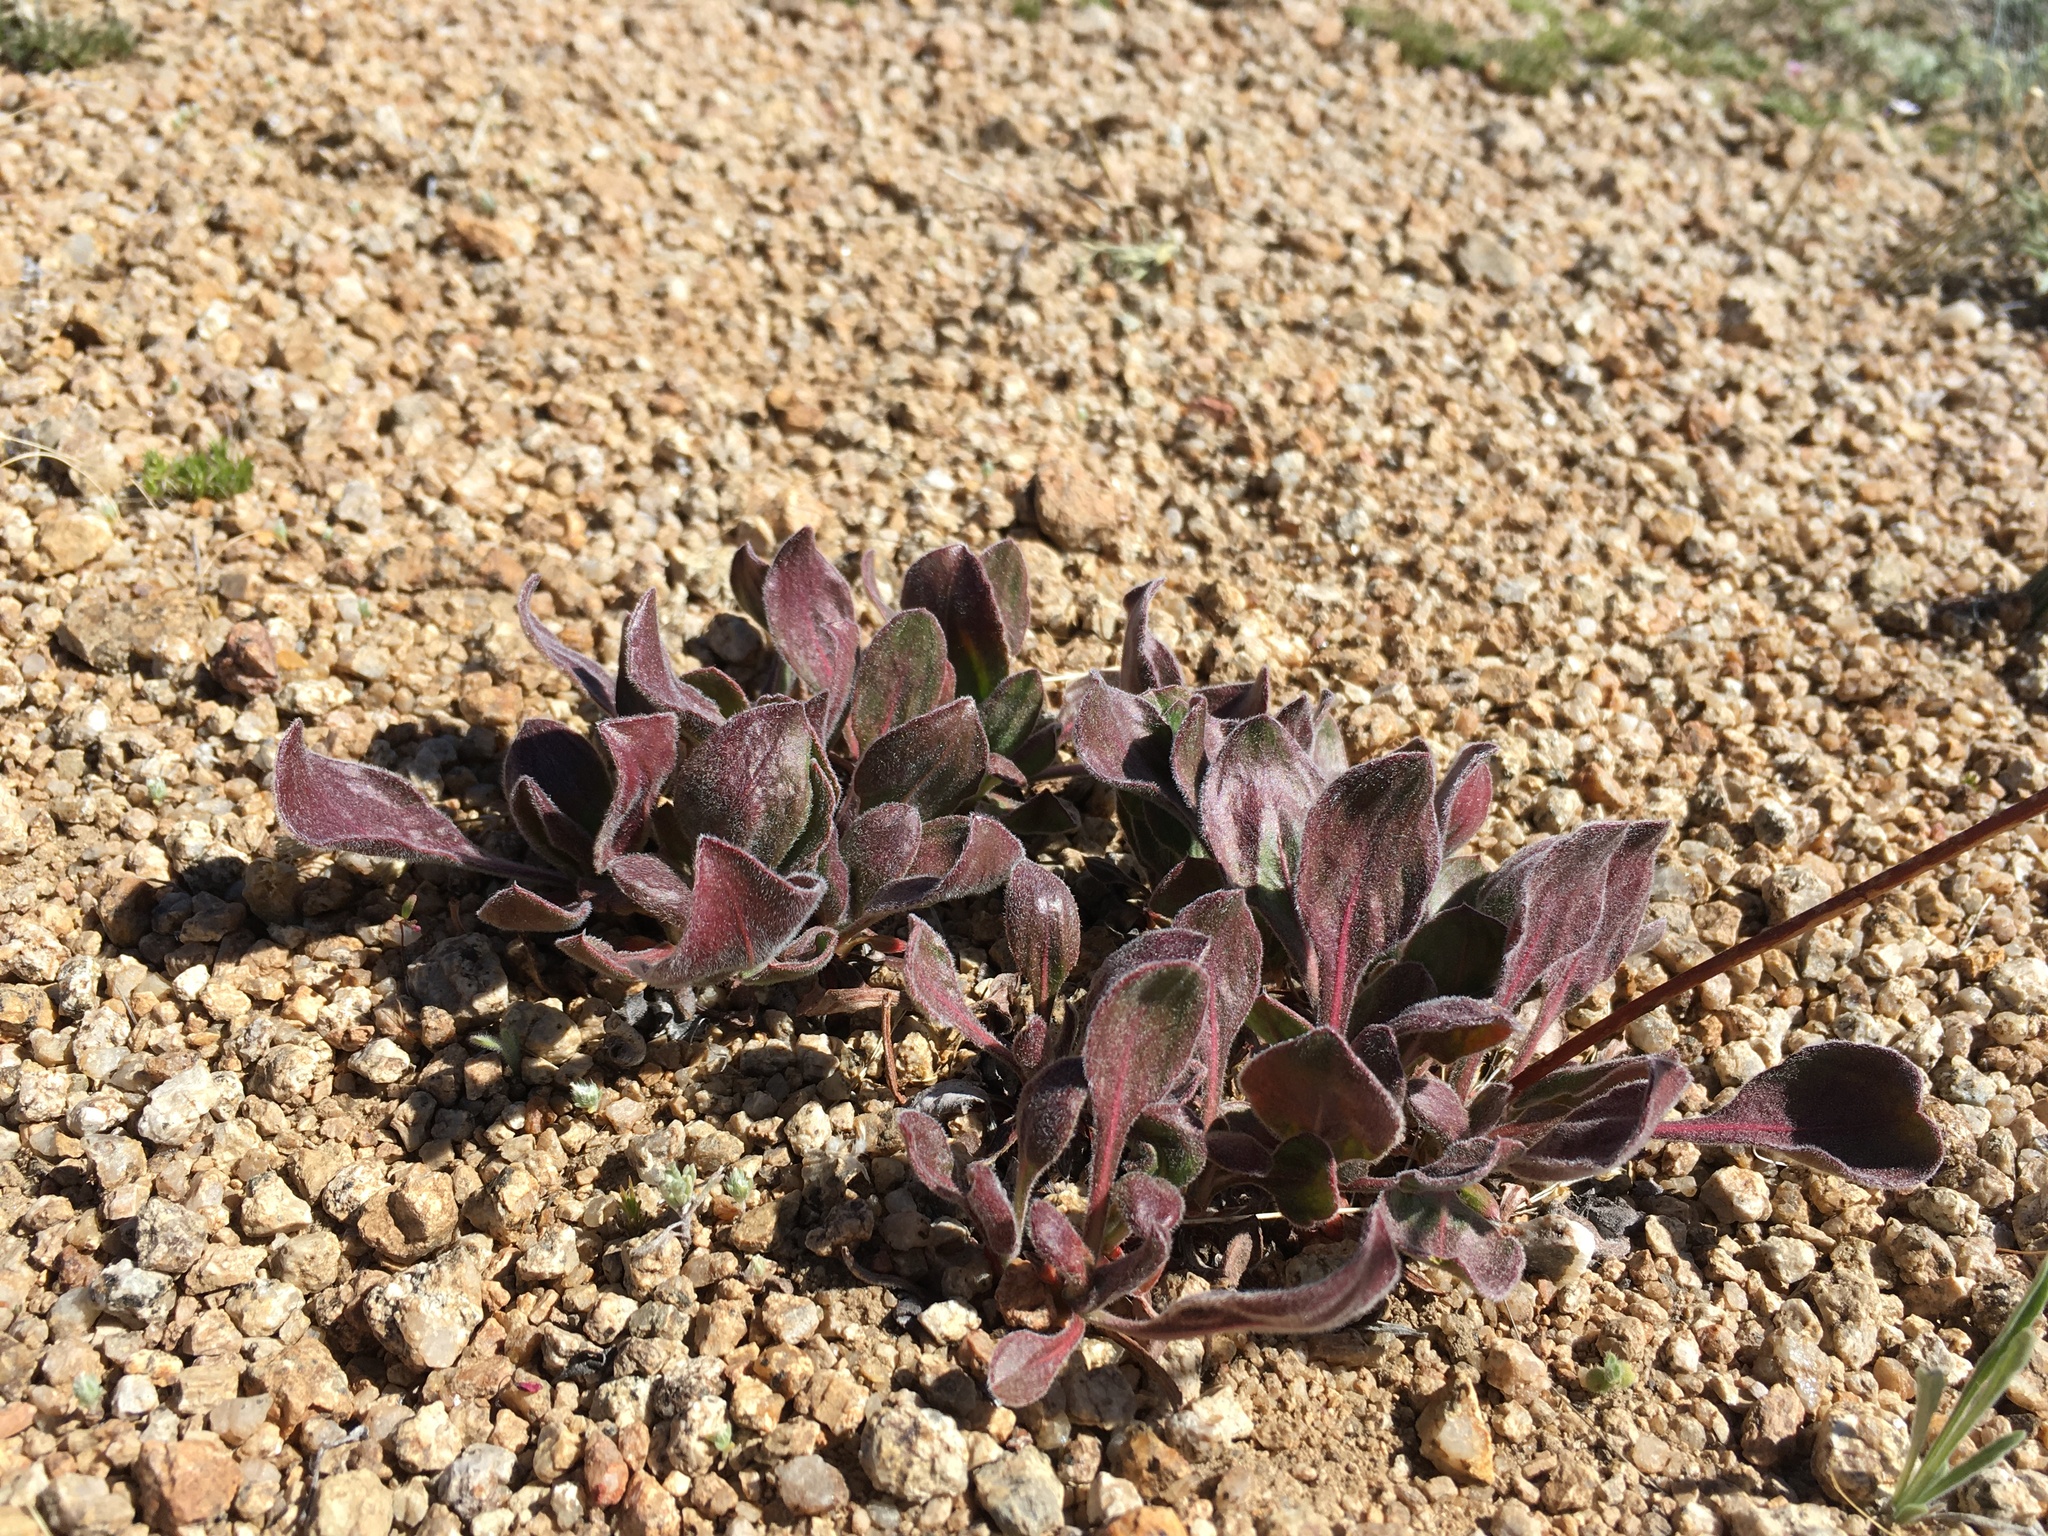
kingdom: Plantae
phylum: Tracheophyta
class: Magnoliopsida
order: Caryophyllales
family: Polygonaceae
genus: Eriogonum
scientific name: Eriogonum latens
